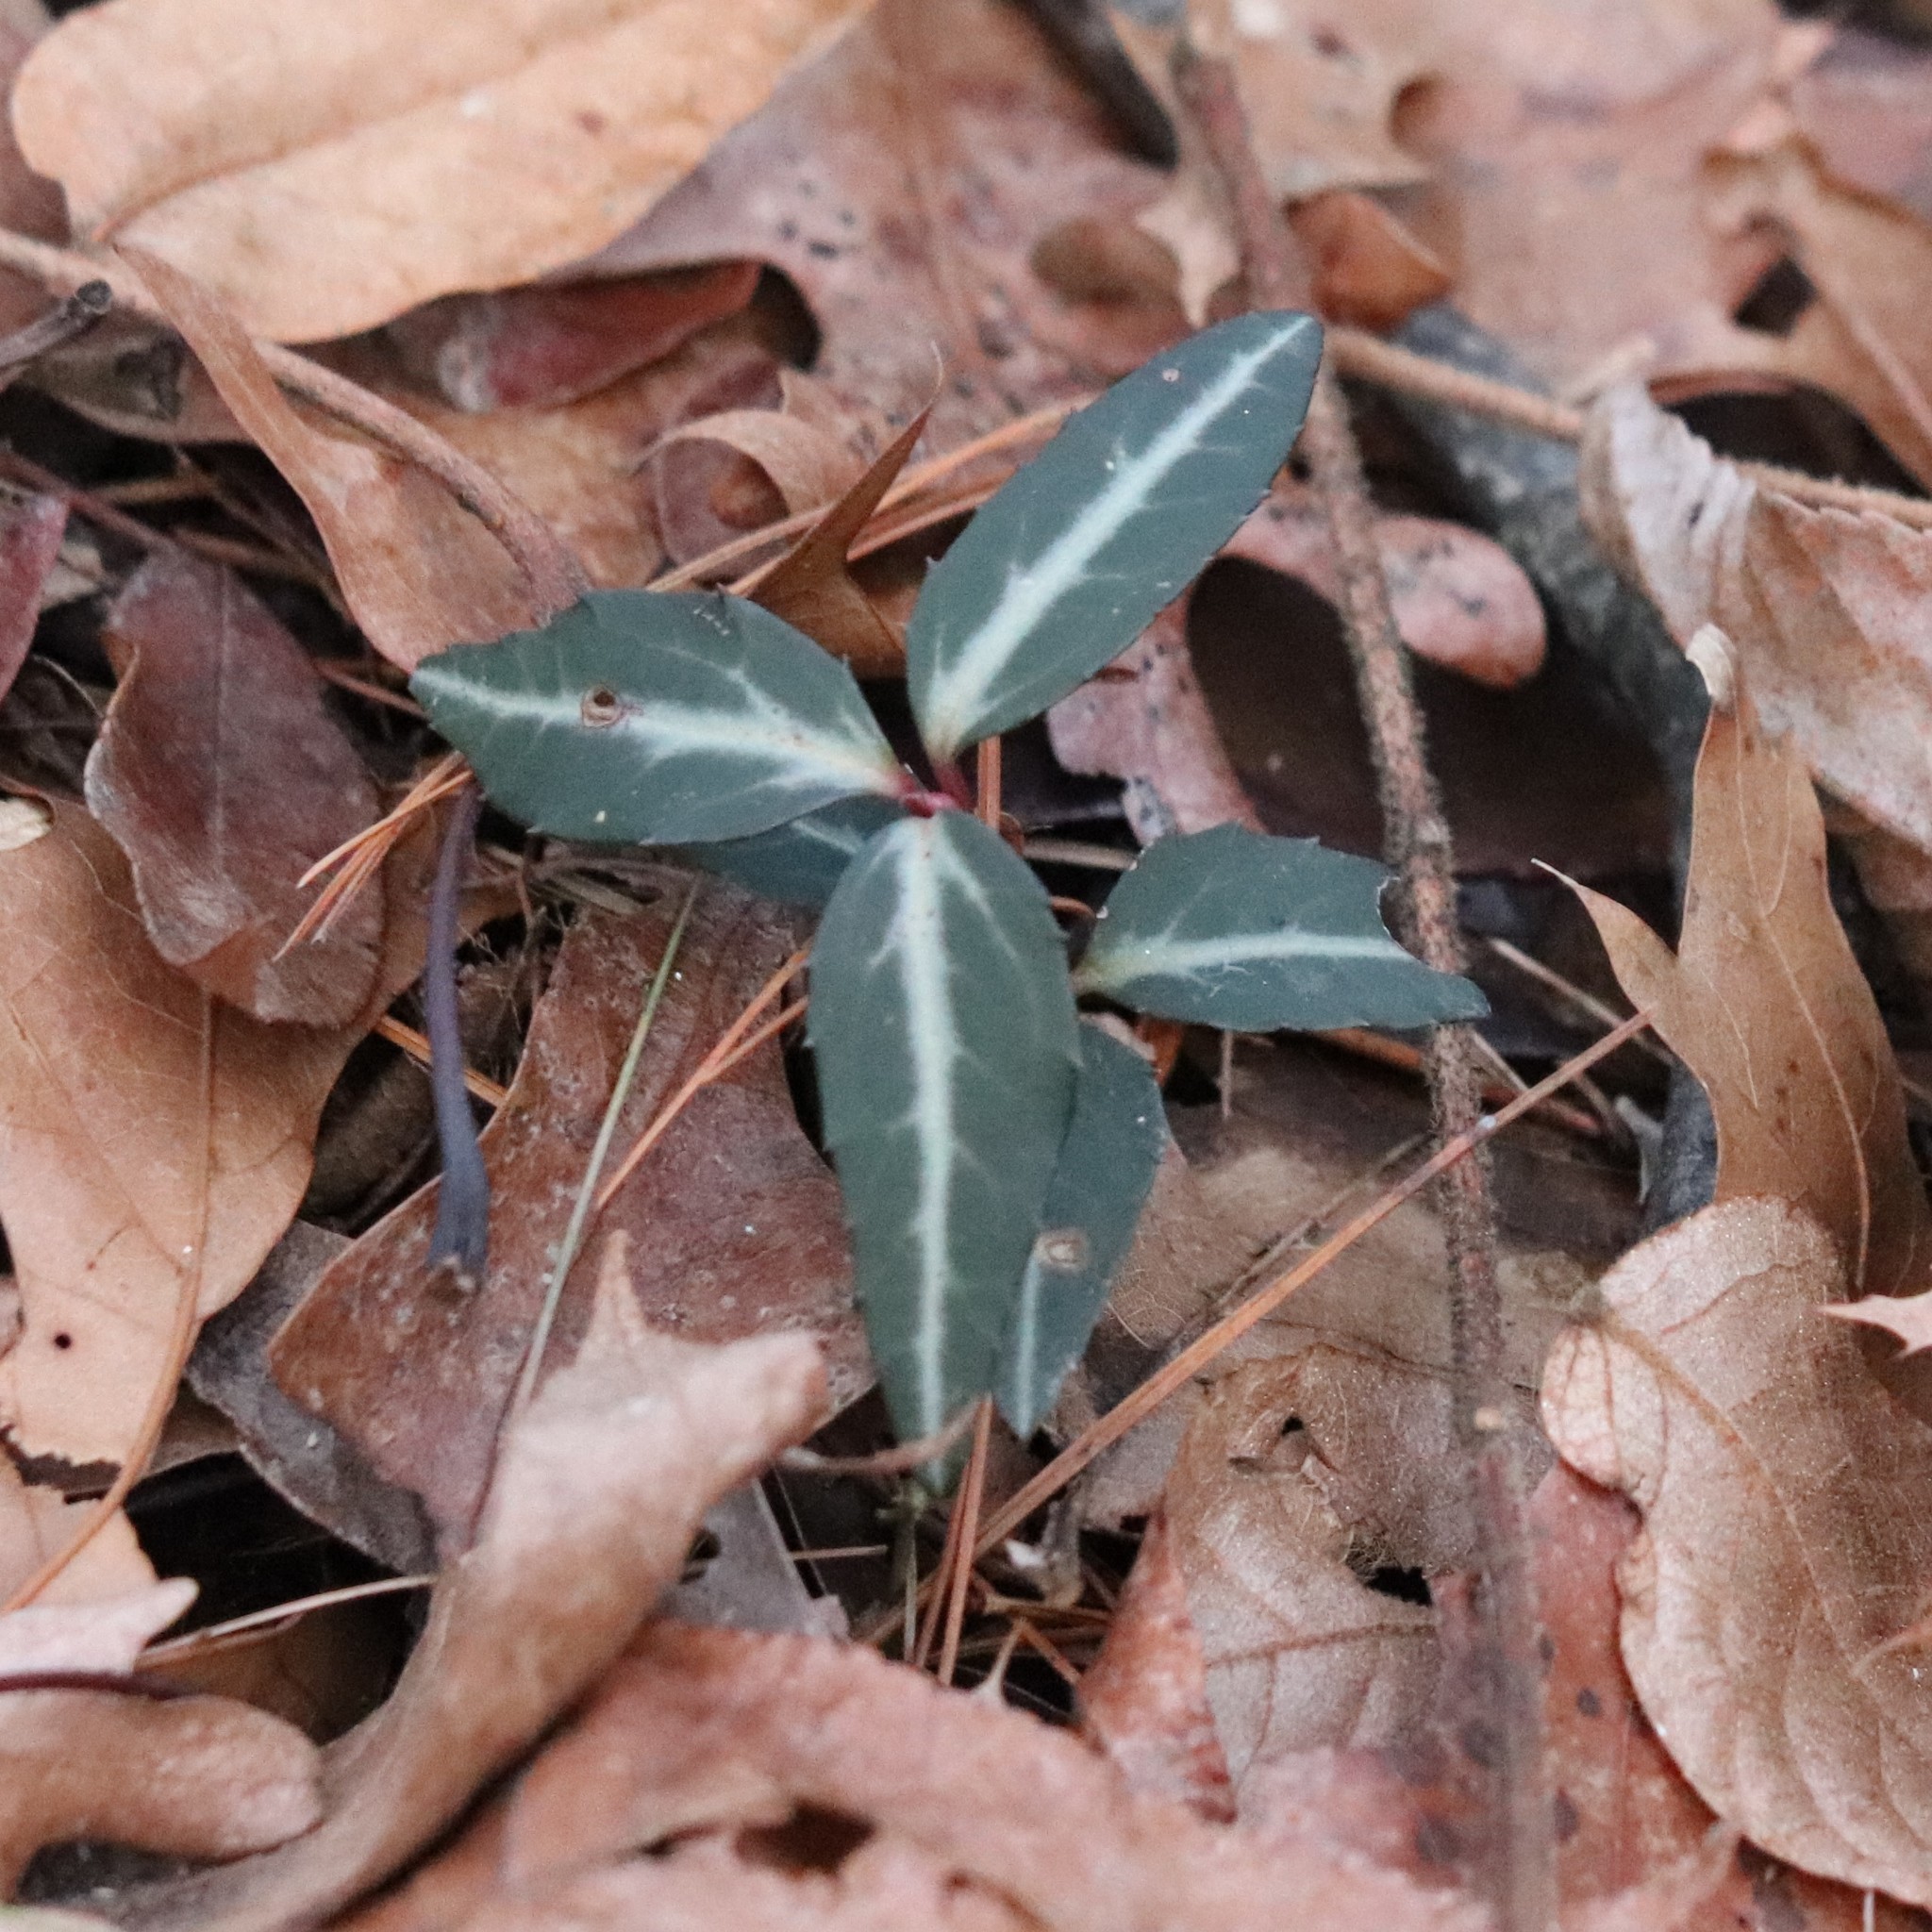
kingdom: Plantae
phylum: Tracheophyta
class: Magnoliopsida
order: Ericales
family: Ericaceae
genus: Chimaphila
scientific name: Chimaphila maculata
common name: Spotted pipsissewa
